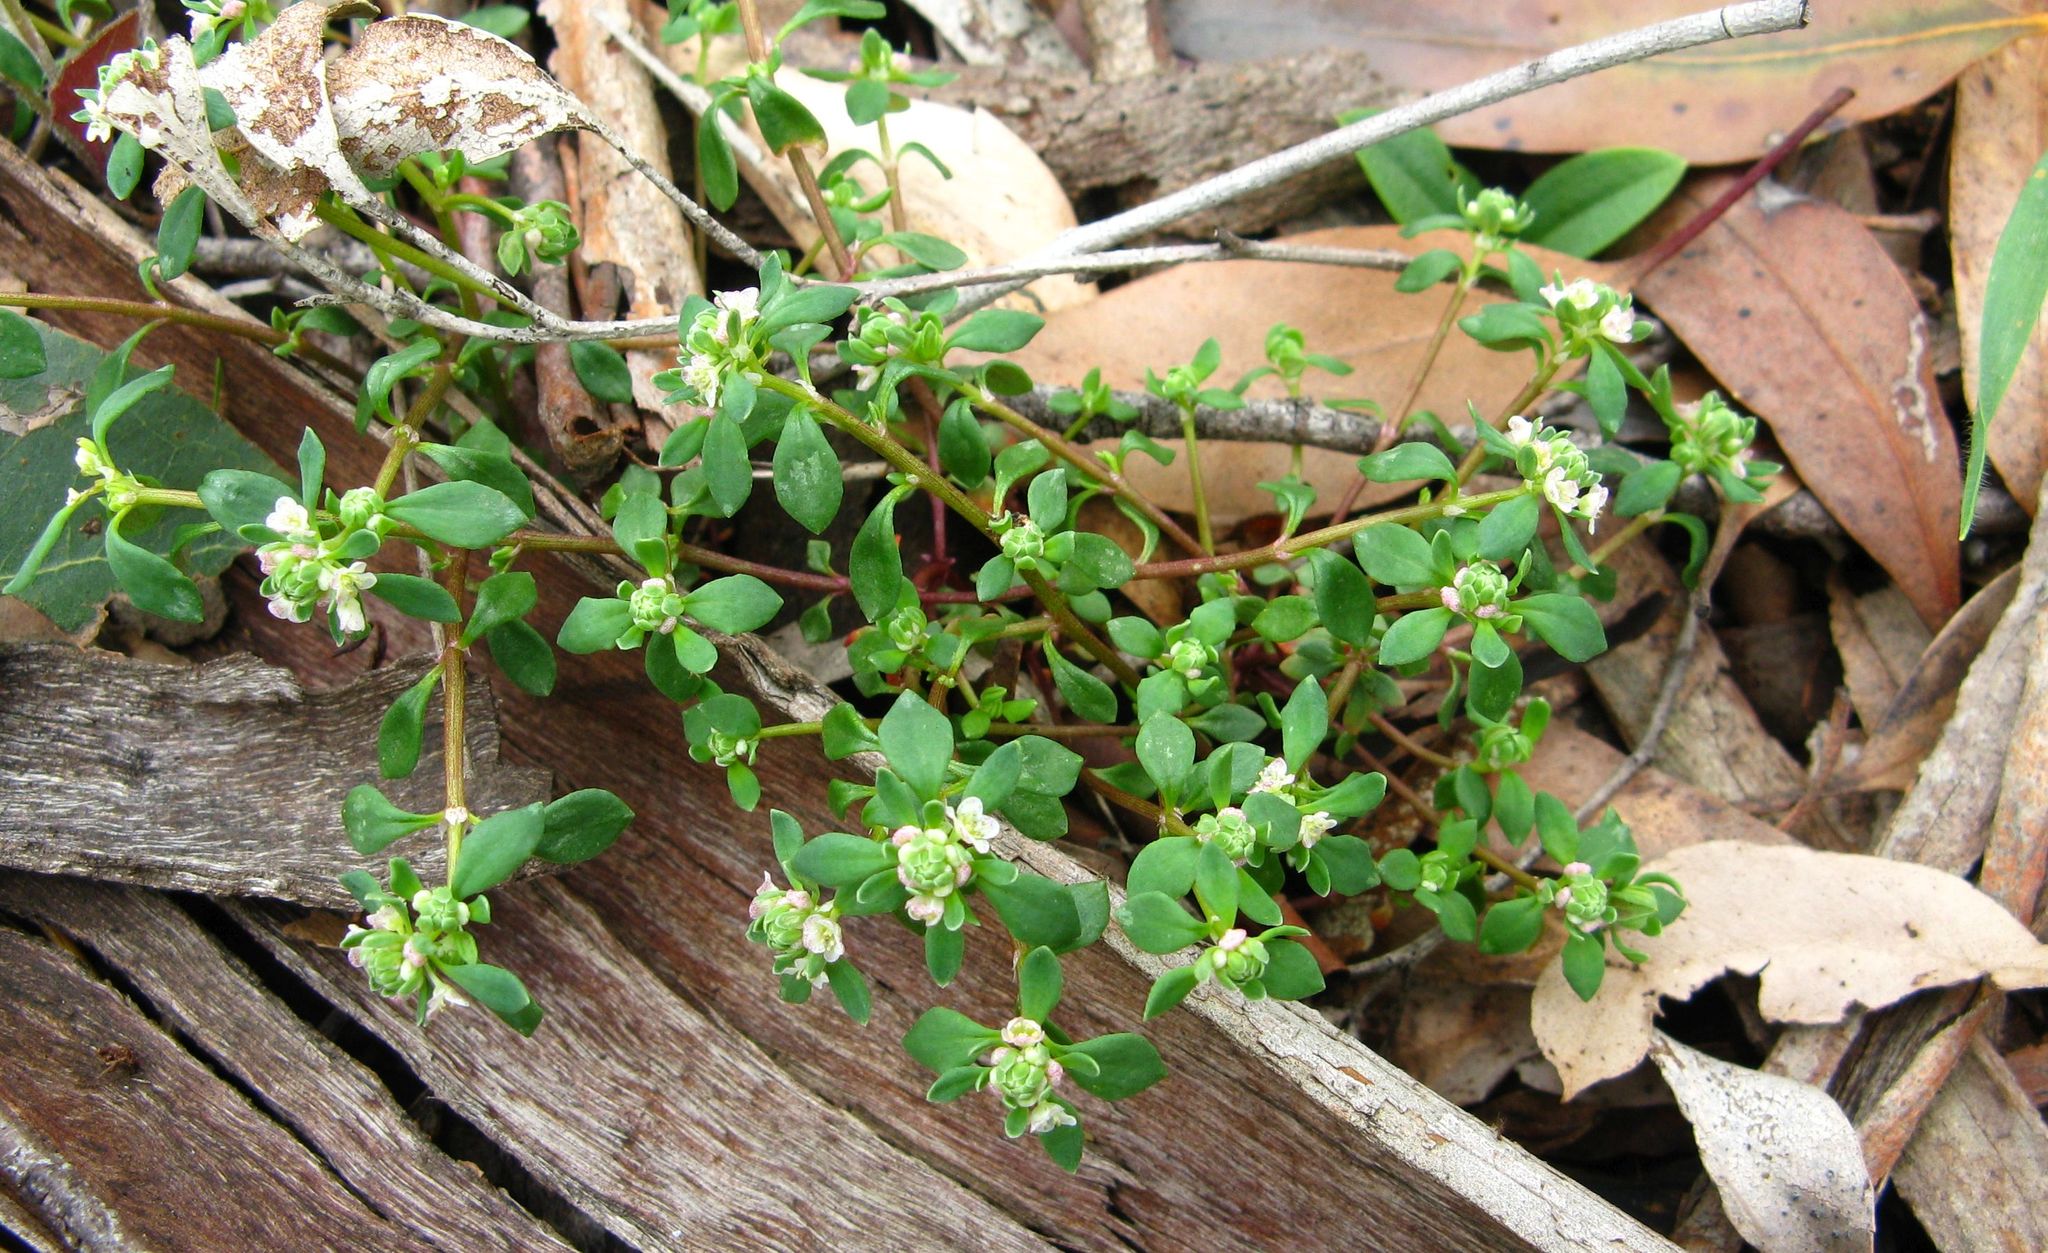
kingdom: Plantae
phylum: Tracheophyta
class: Magnoliopsida
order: Malpighiales
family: Phyllanthaceae
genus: Poranthera
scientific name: Poranthera microphylla
